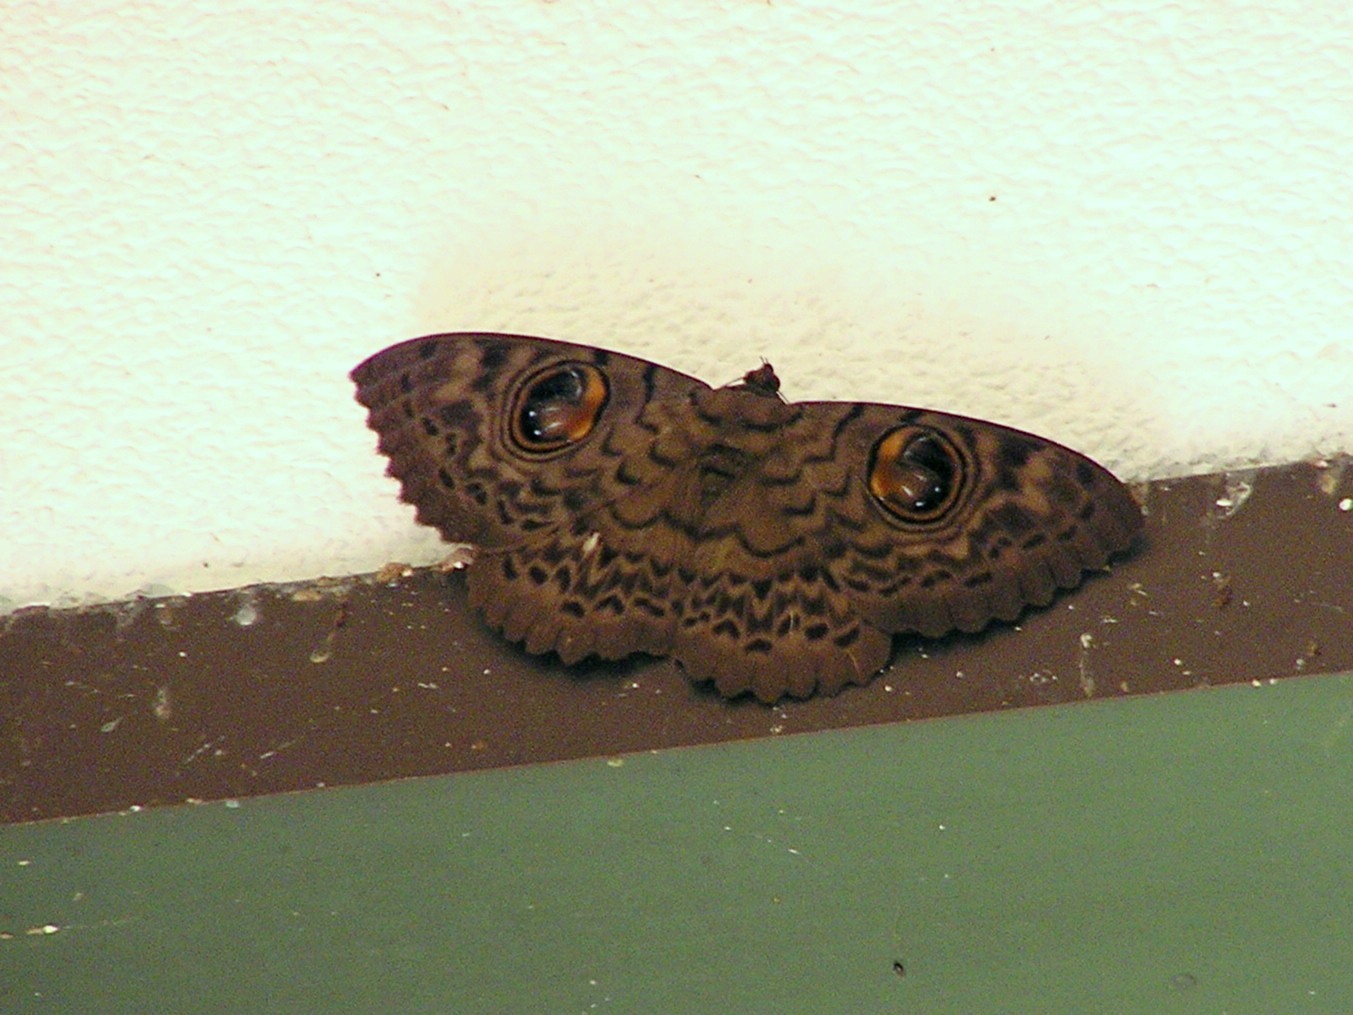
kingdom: Animalia
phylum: Arthropoda
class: Insecta
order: Lepidoptera
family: Erebidae
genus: Erebus
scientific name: Erebus macrops
